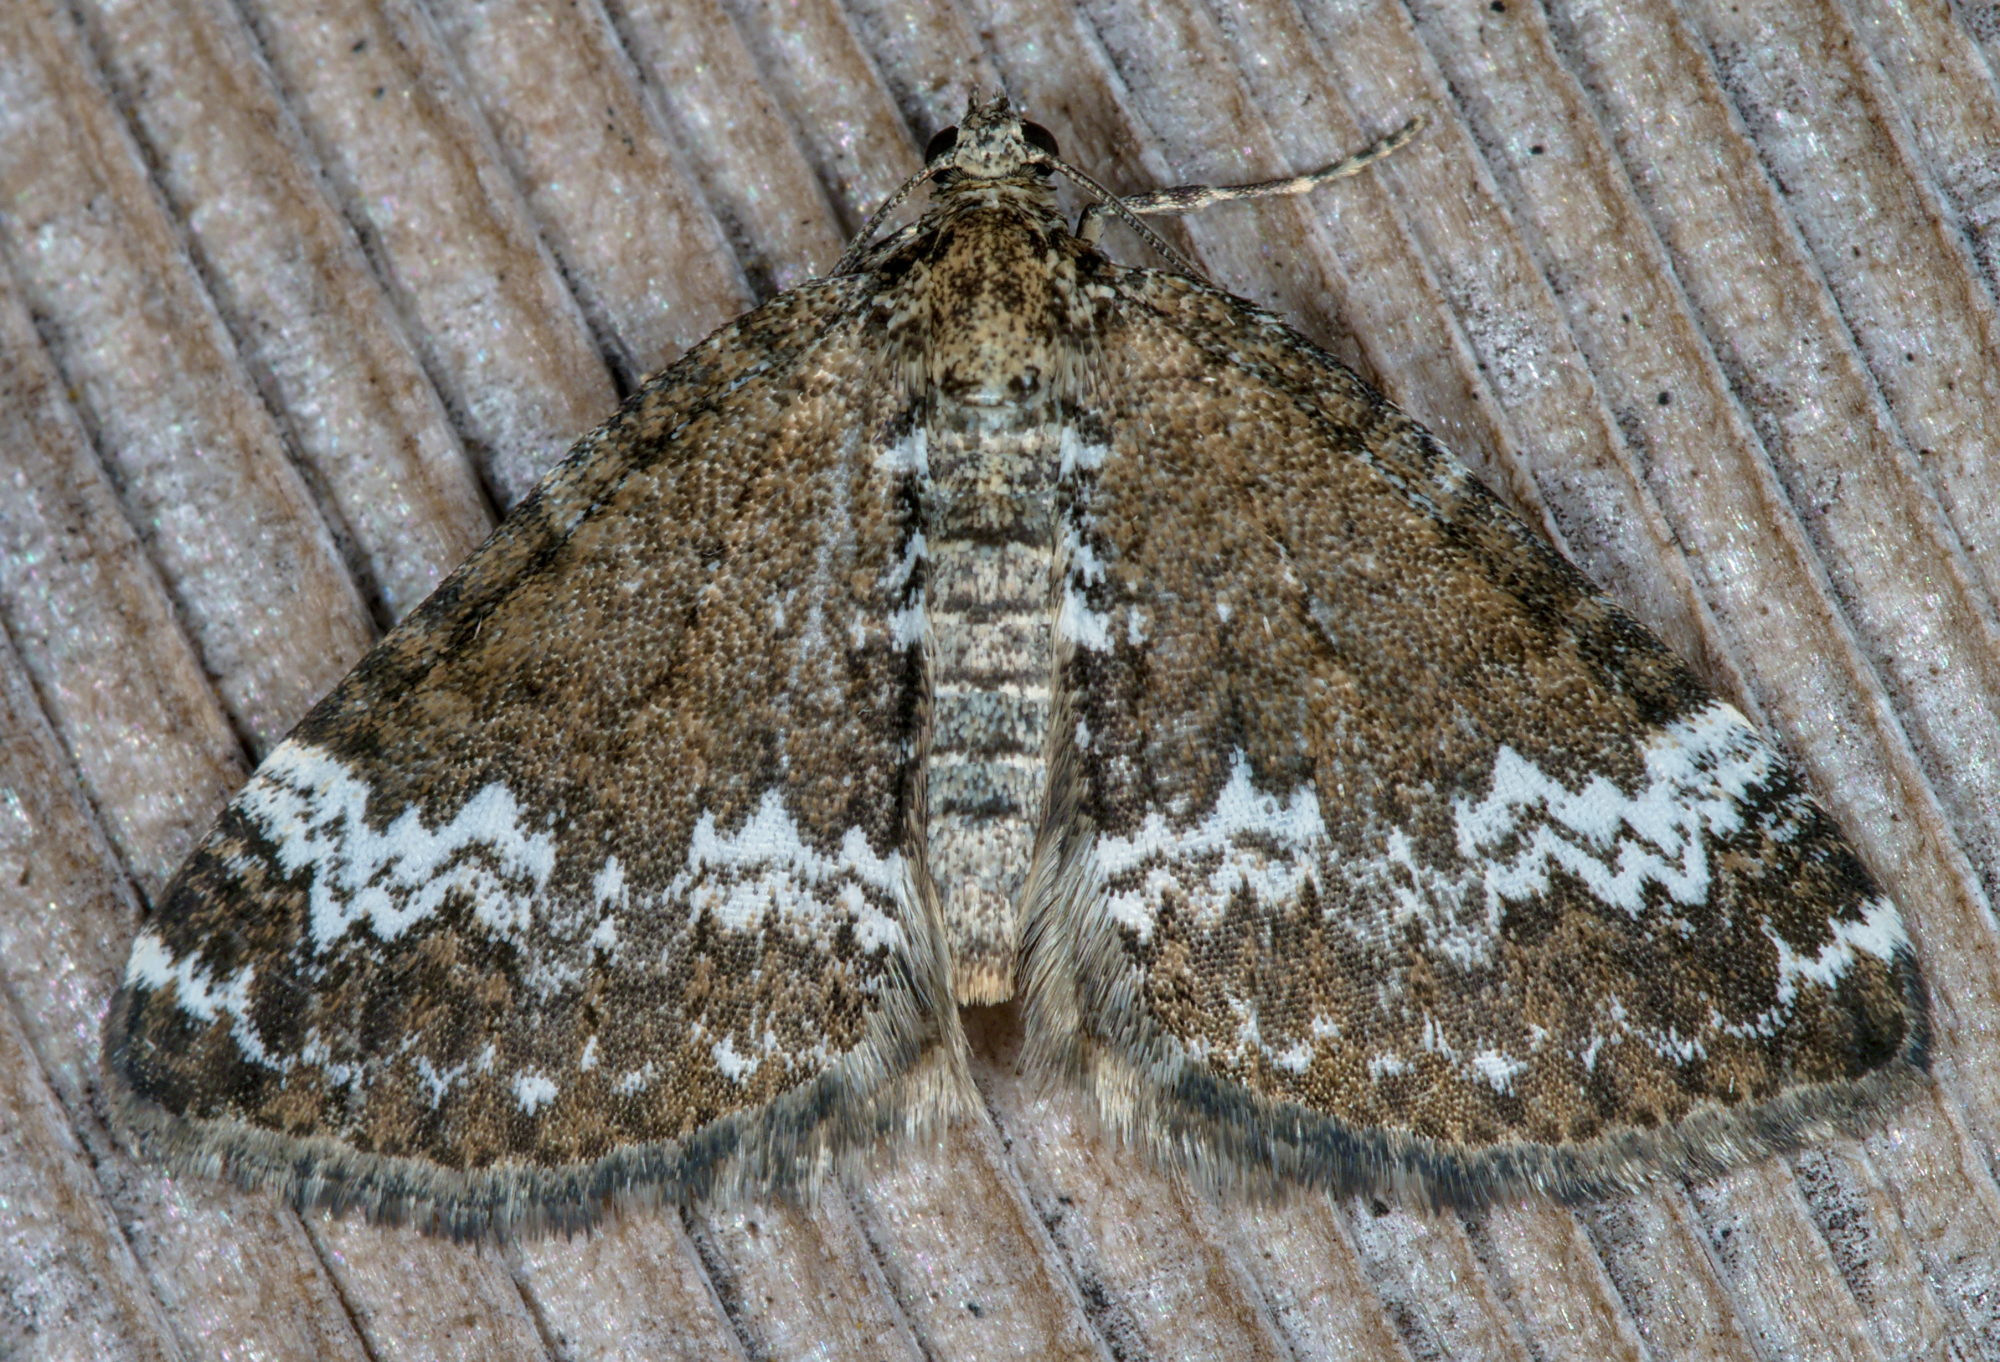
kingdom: Animalia
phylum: Arthropoda
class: Insecta
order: Lepidoptera
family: Geometridae
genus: Perizoma
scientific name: Perizoma alchemillata
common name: Small rivulet
